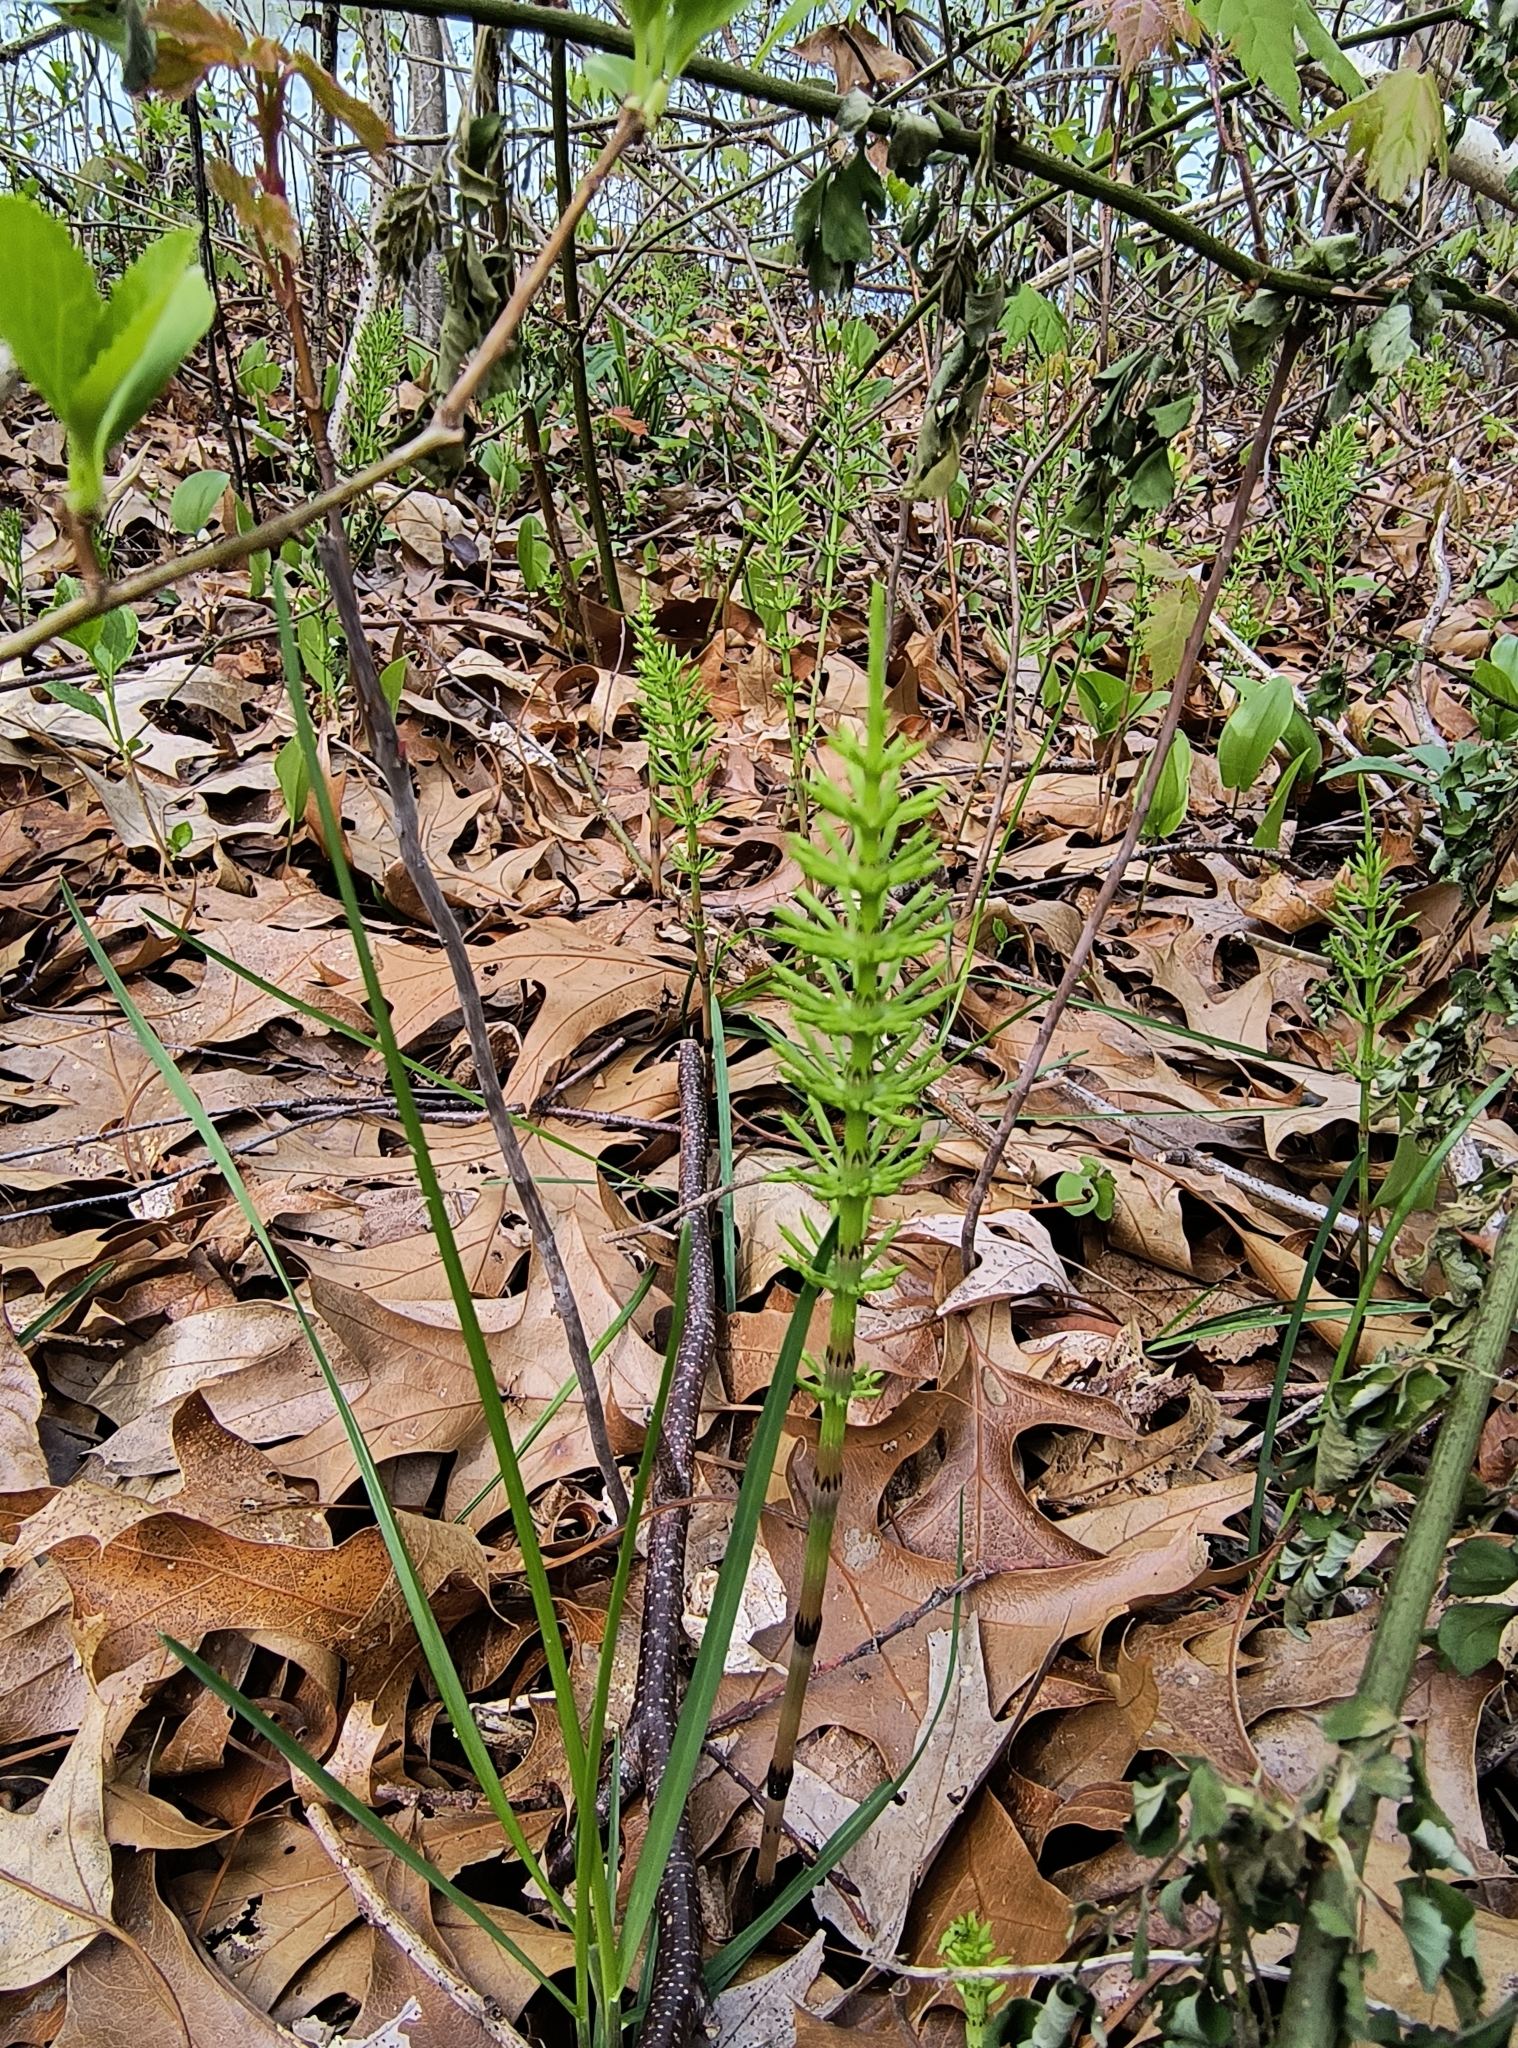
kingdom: Plantae
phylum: Tracheophyta
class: Polypodiopsida
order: Equisetales
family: Equisetaceae
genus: Equisetum
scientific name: Equisetum arvense
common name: Field horsetail
